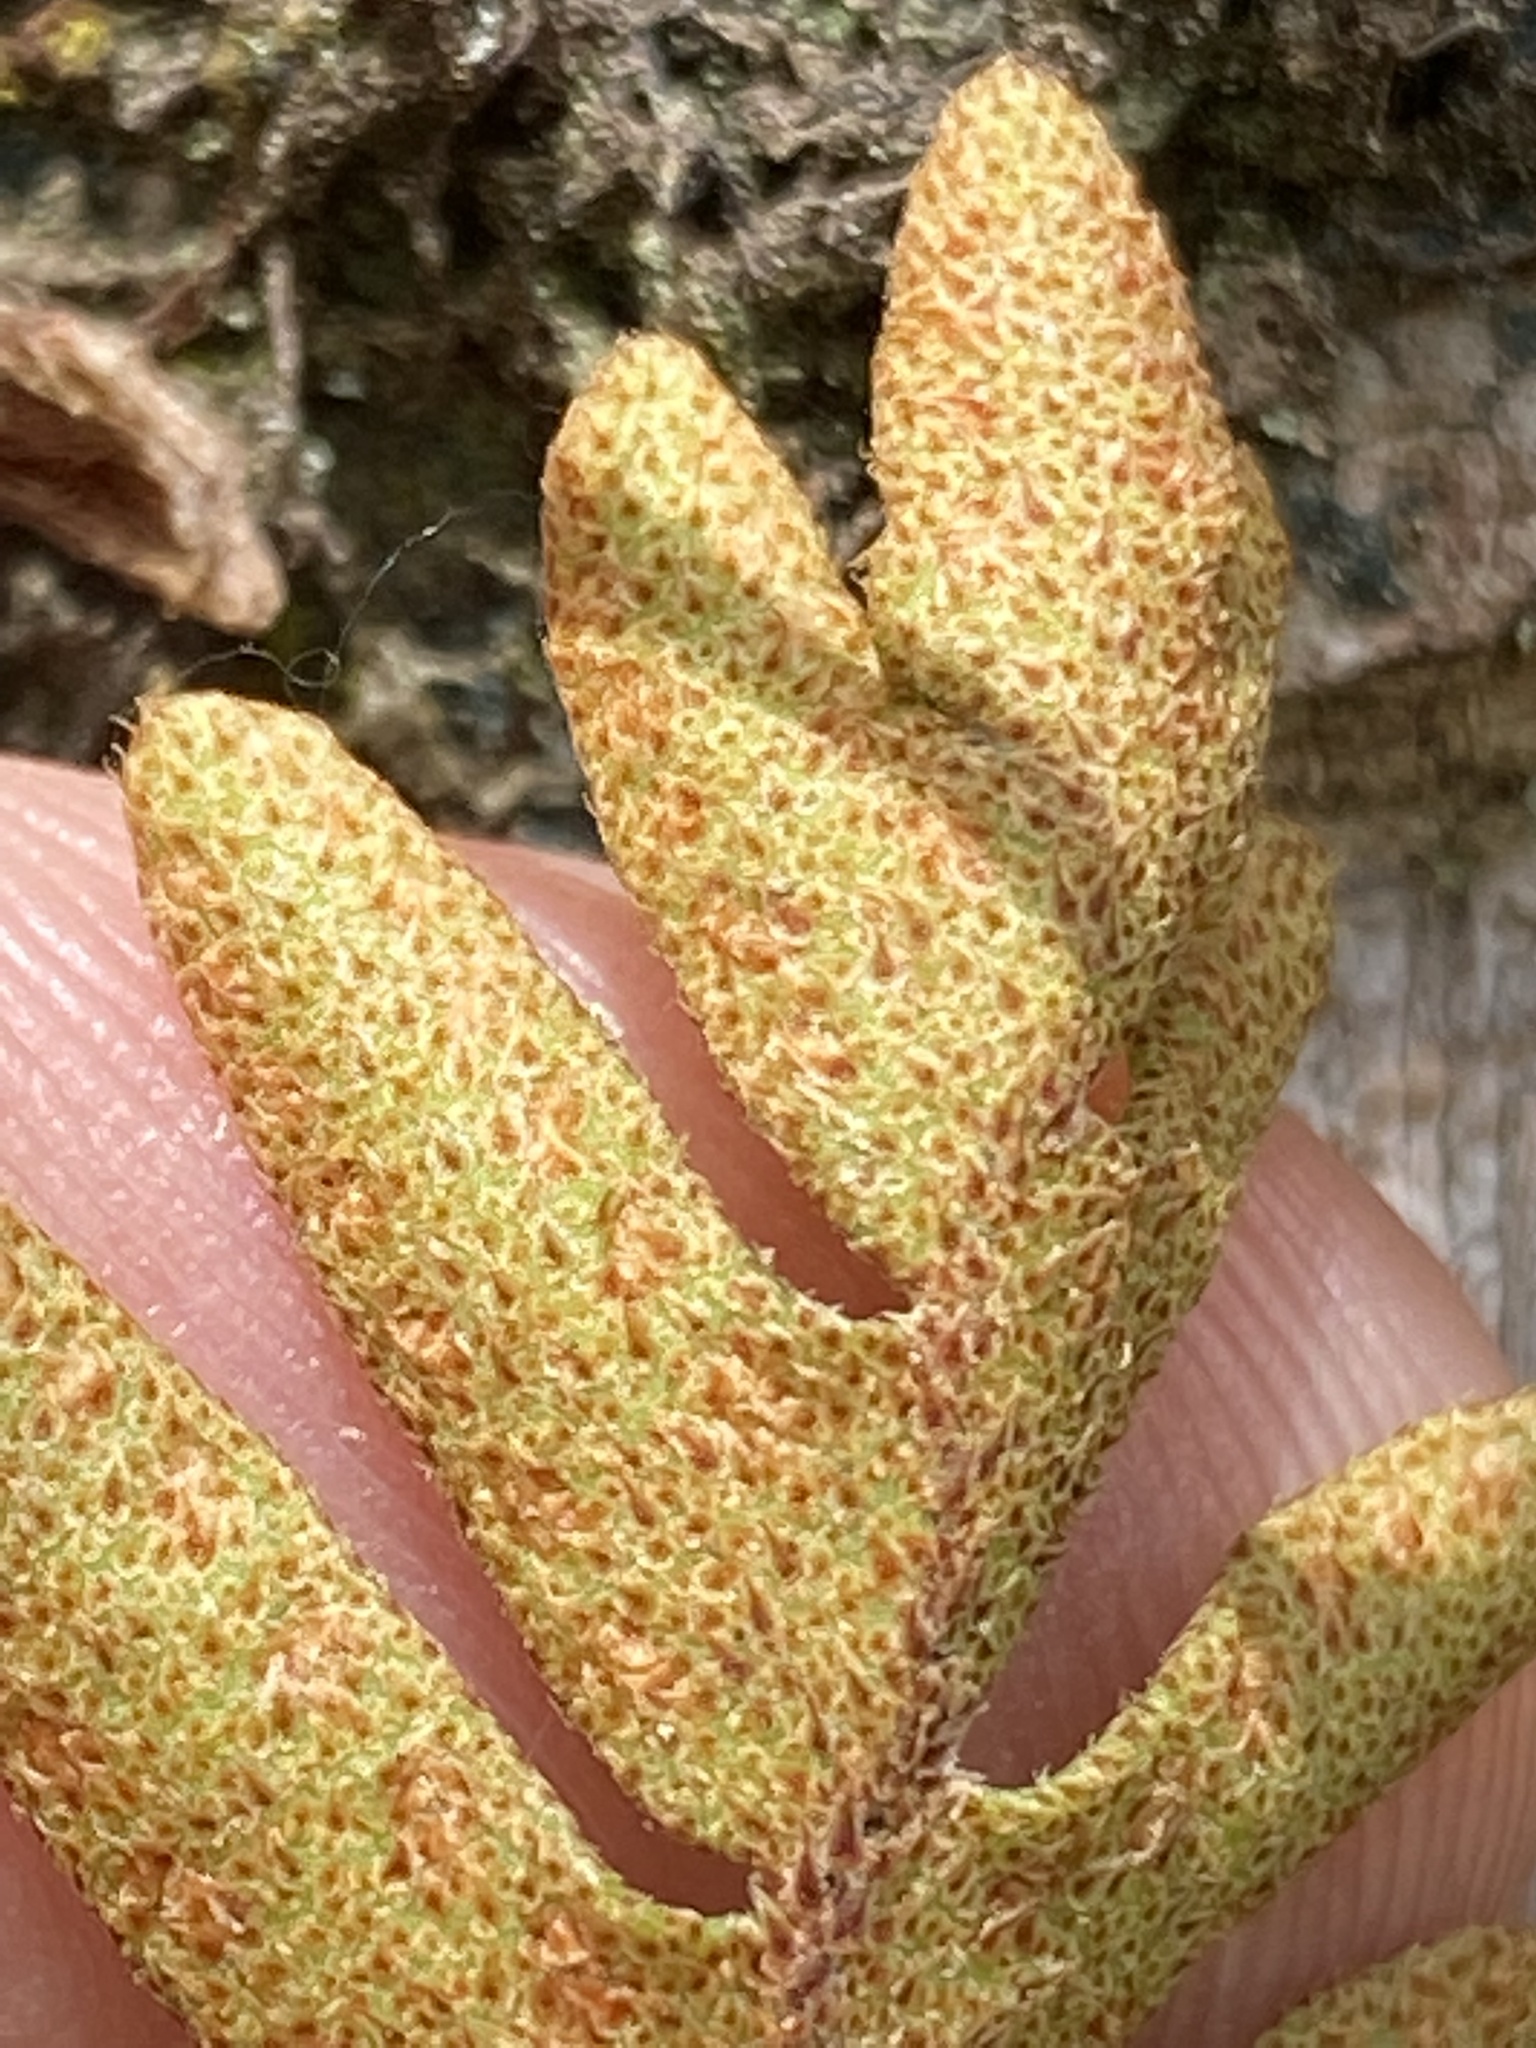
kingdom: Plantae
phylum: Tracheophyta
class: Polypodiopsida
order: Polypodiales
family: Polypodiaceae
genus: Pleopeltis
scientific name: Pleopeltis polypodioides
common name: Resurrection fern
